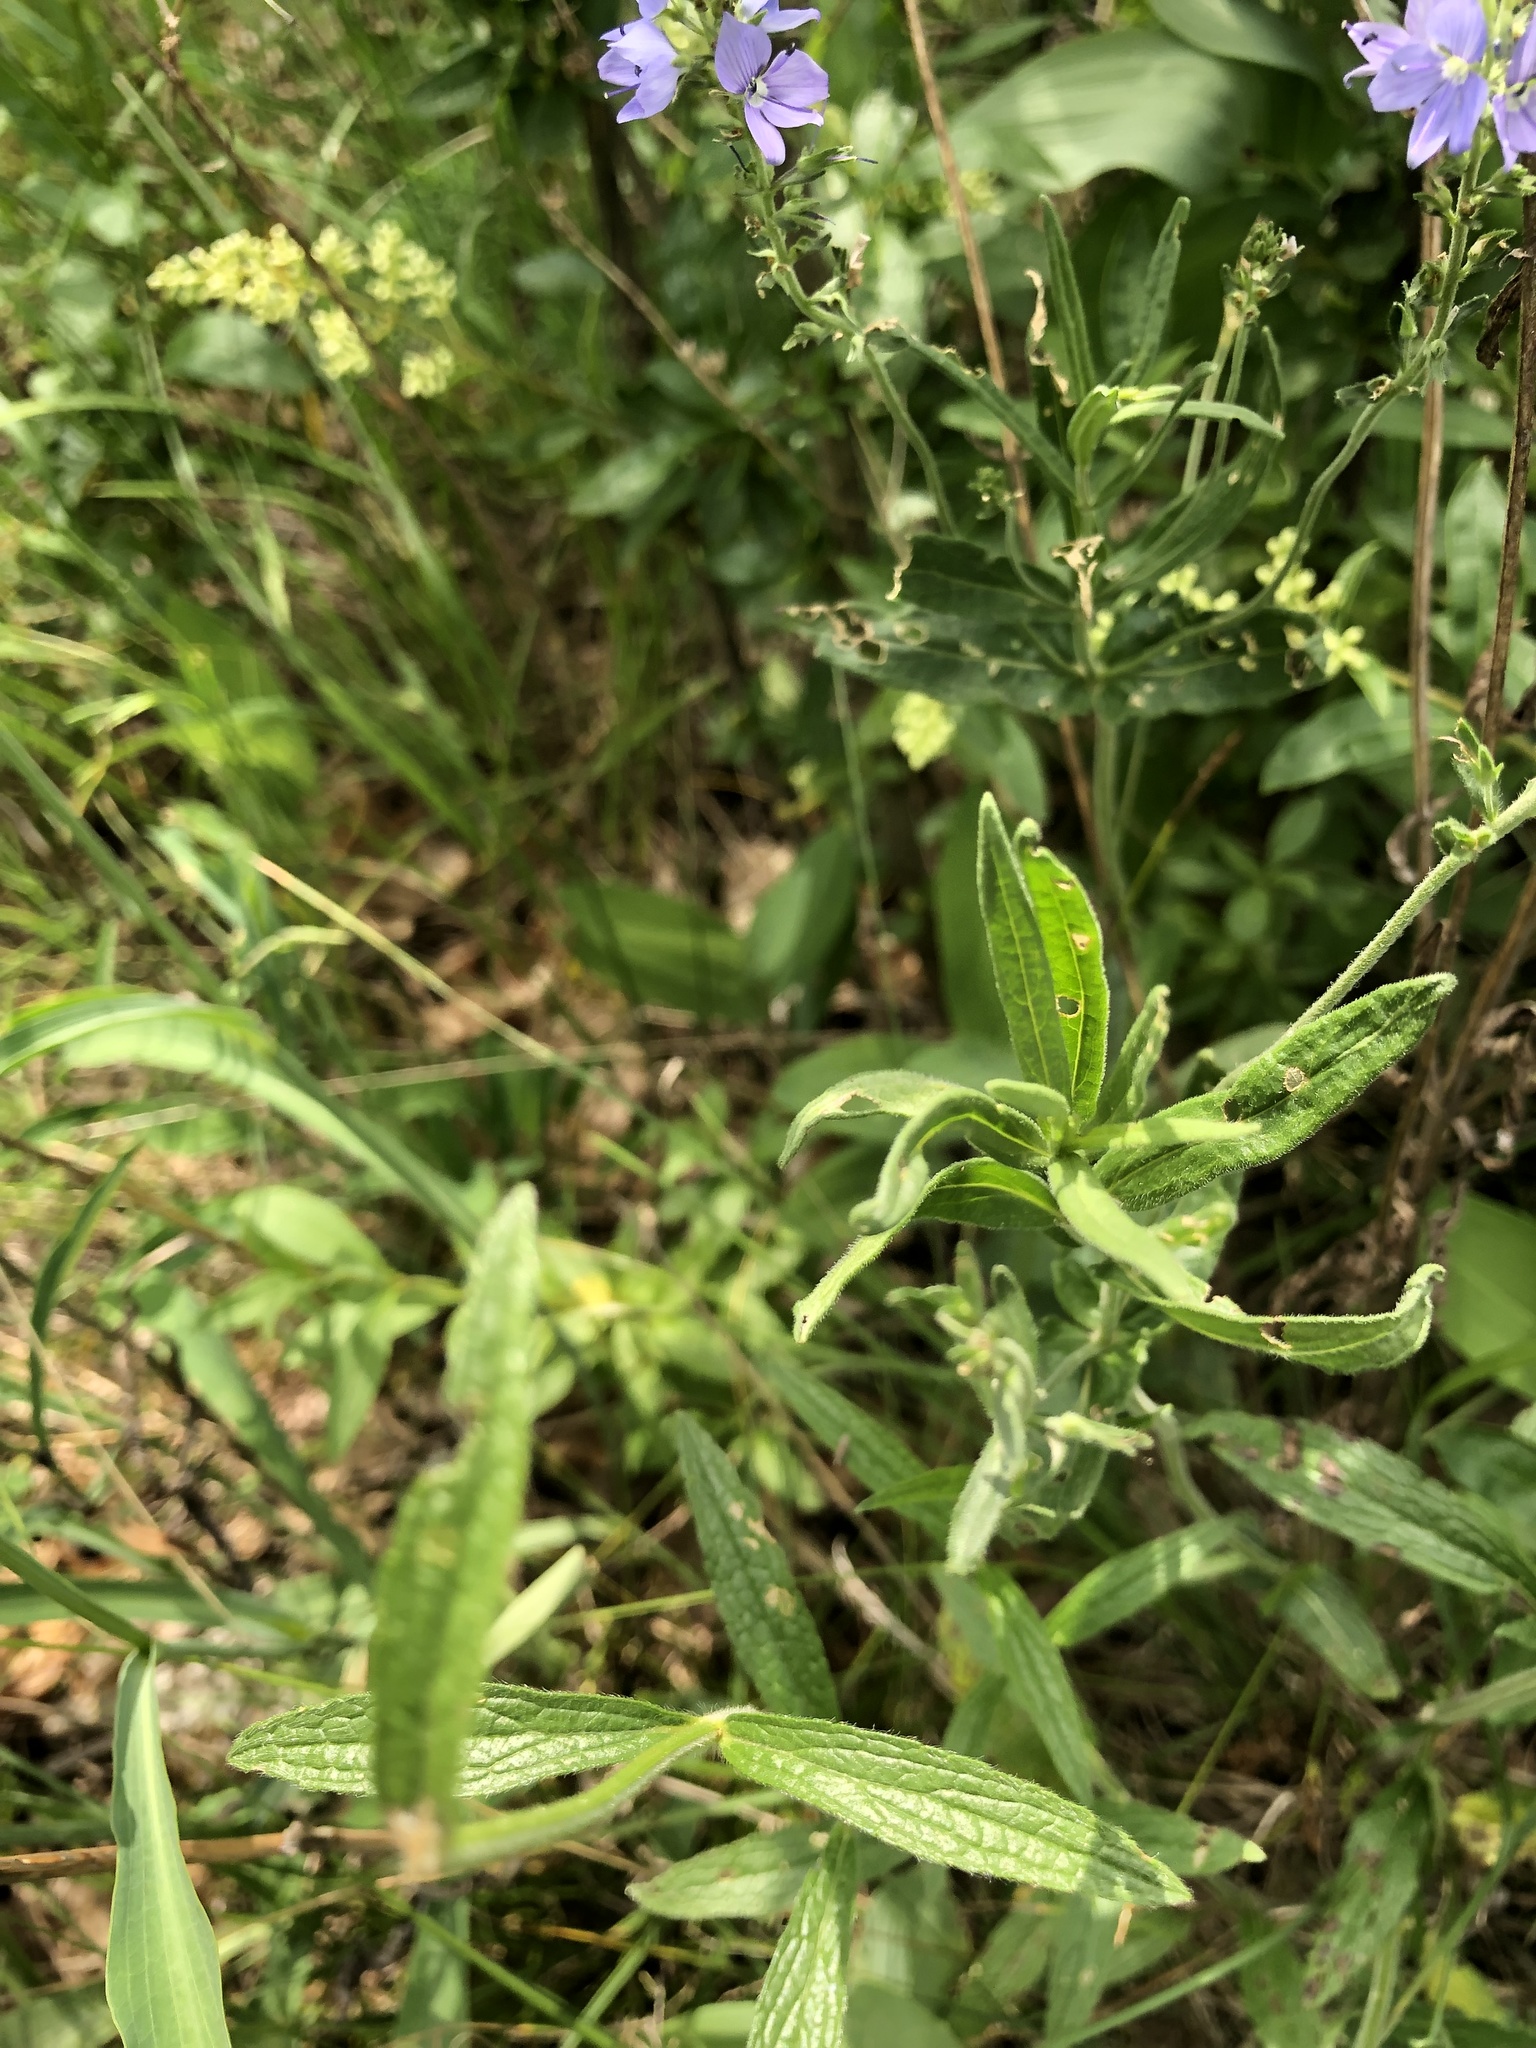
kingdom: Plantae
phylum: Tracheophyta
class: Magnoliopsida
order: Lamiales
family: Plantaginaceae
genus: Veronica
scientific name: Veronica austriaca
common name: Large speedwell
